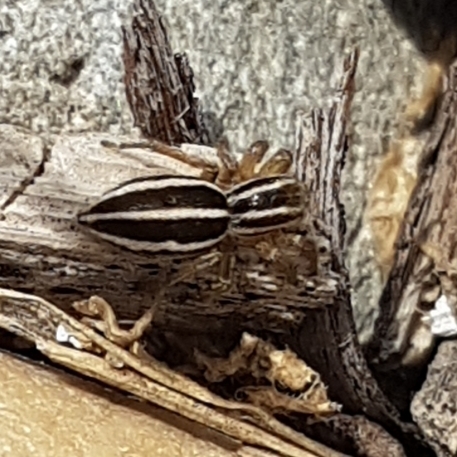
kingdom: Animalia
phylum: Arthropoda
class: Arachnida
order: Araneae
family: Salticidae
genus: Phlegra
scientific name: Phlegra bresnieri
